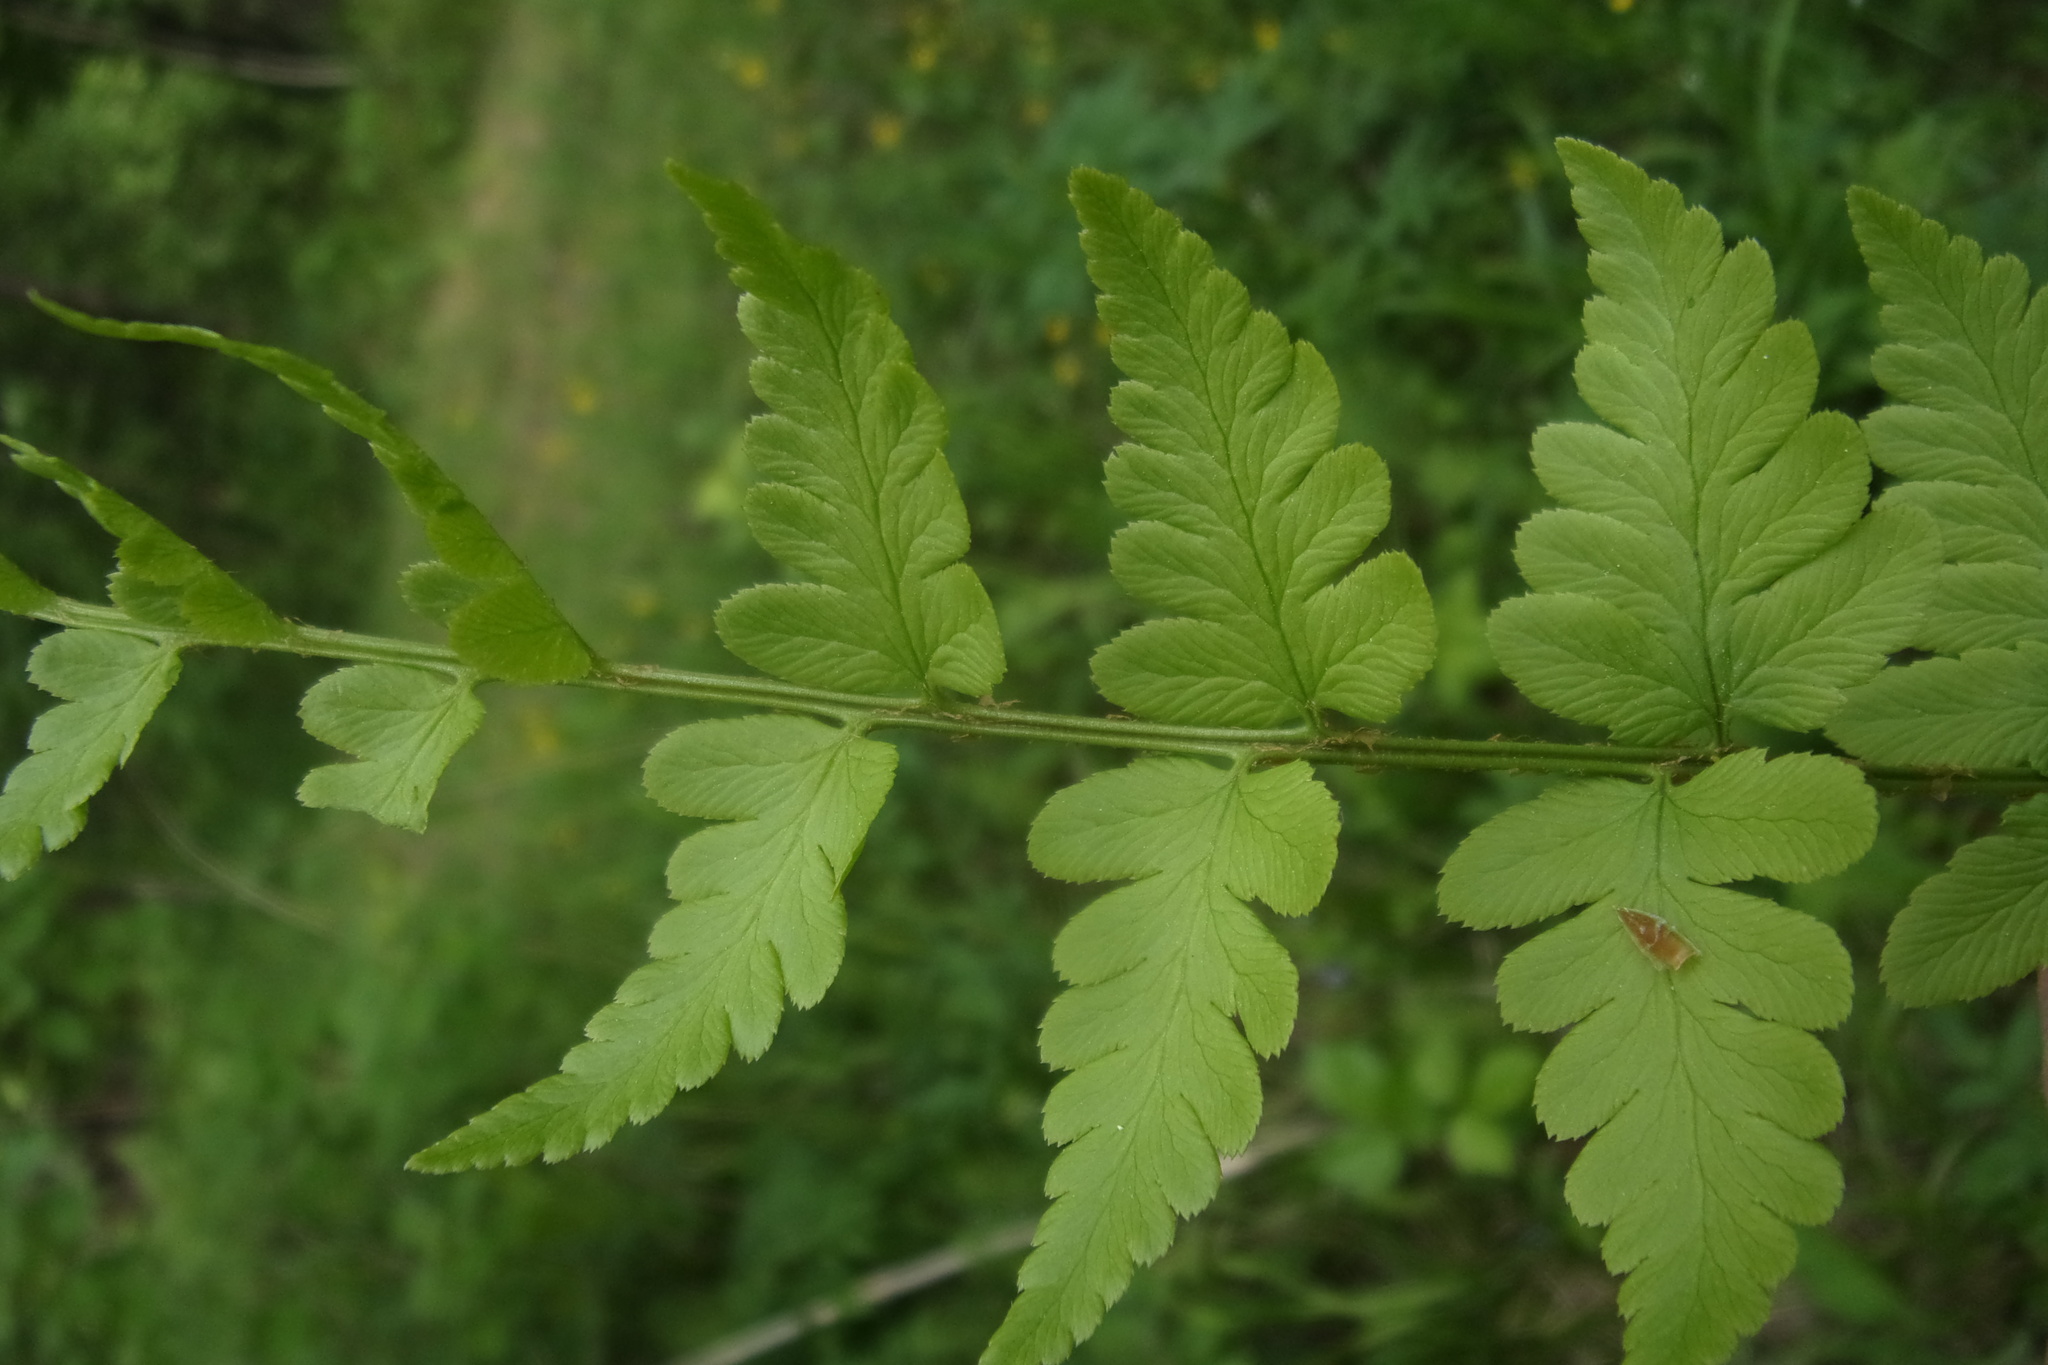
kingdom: Plantae
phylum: Tracheophyta
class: Polypodiopsida
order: Polypodiales
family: Dryopteridaceae
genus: Dryopteris
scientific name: Dryopteris cristata
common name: Crested wood fern
